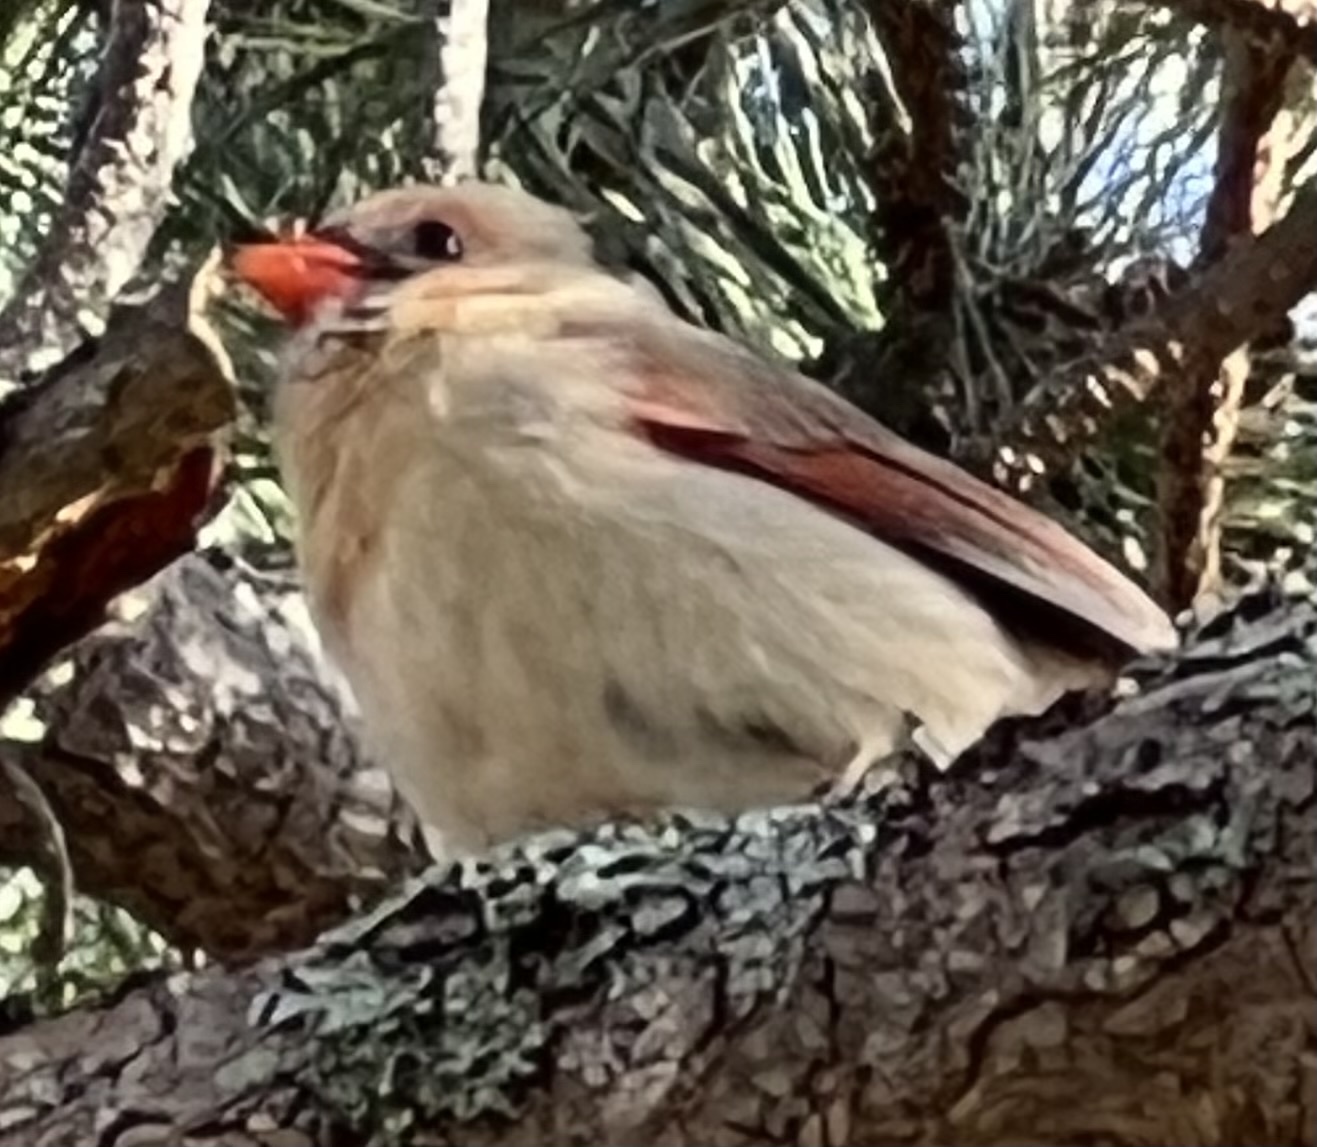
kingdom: Animalia
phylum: Chordata
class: Aves
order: Passeriformes
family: Cardinalidae
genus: Cardinalis
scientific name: Cardinalis cardinalis
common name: Northern cardinal
